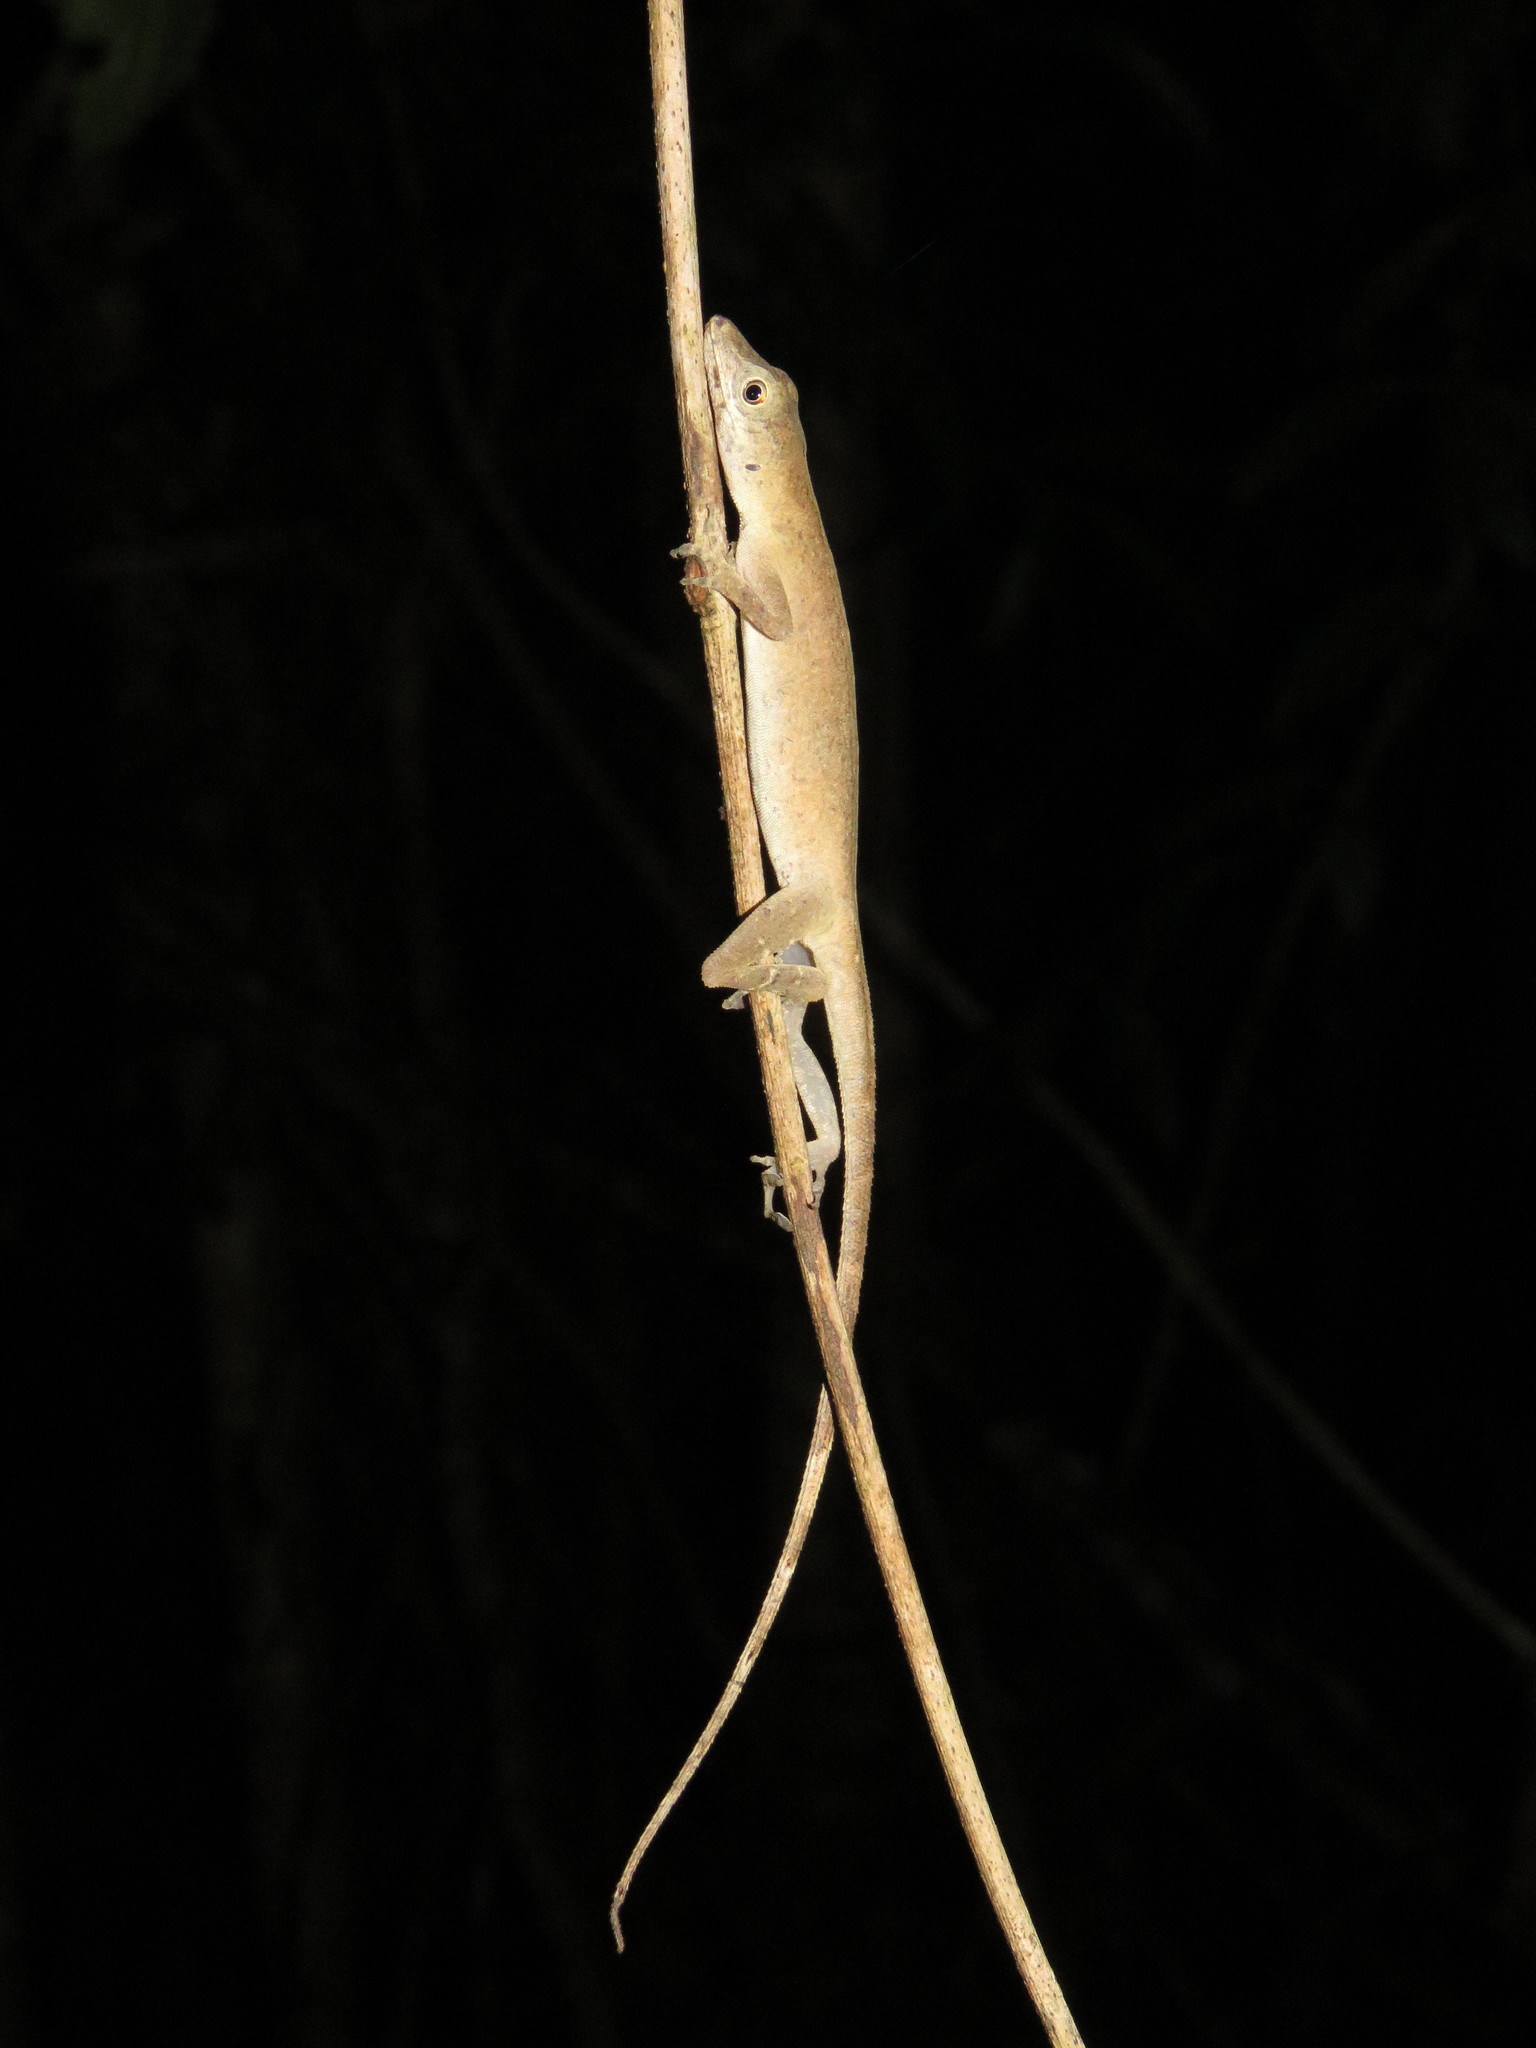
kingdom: Animalia
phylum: Chordata
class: Squamata
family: Dactyloidae
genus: Anolis
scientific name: Anolis fuscoauratus
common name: Brown-eared anole
